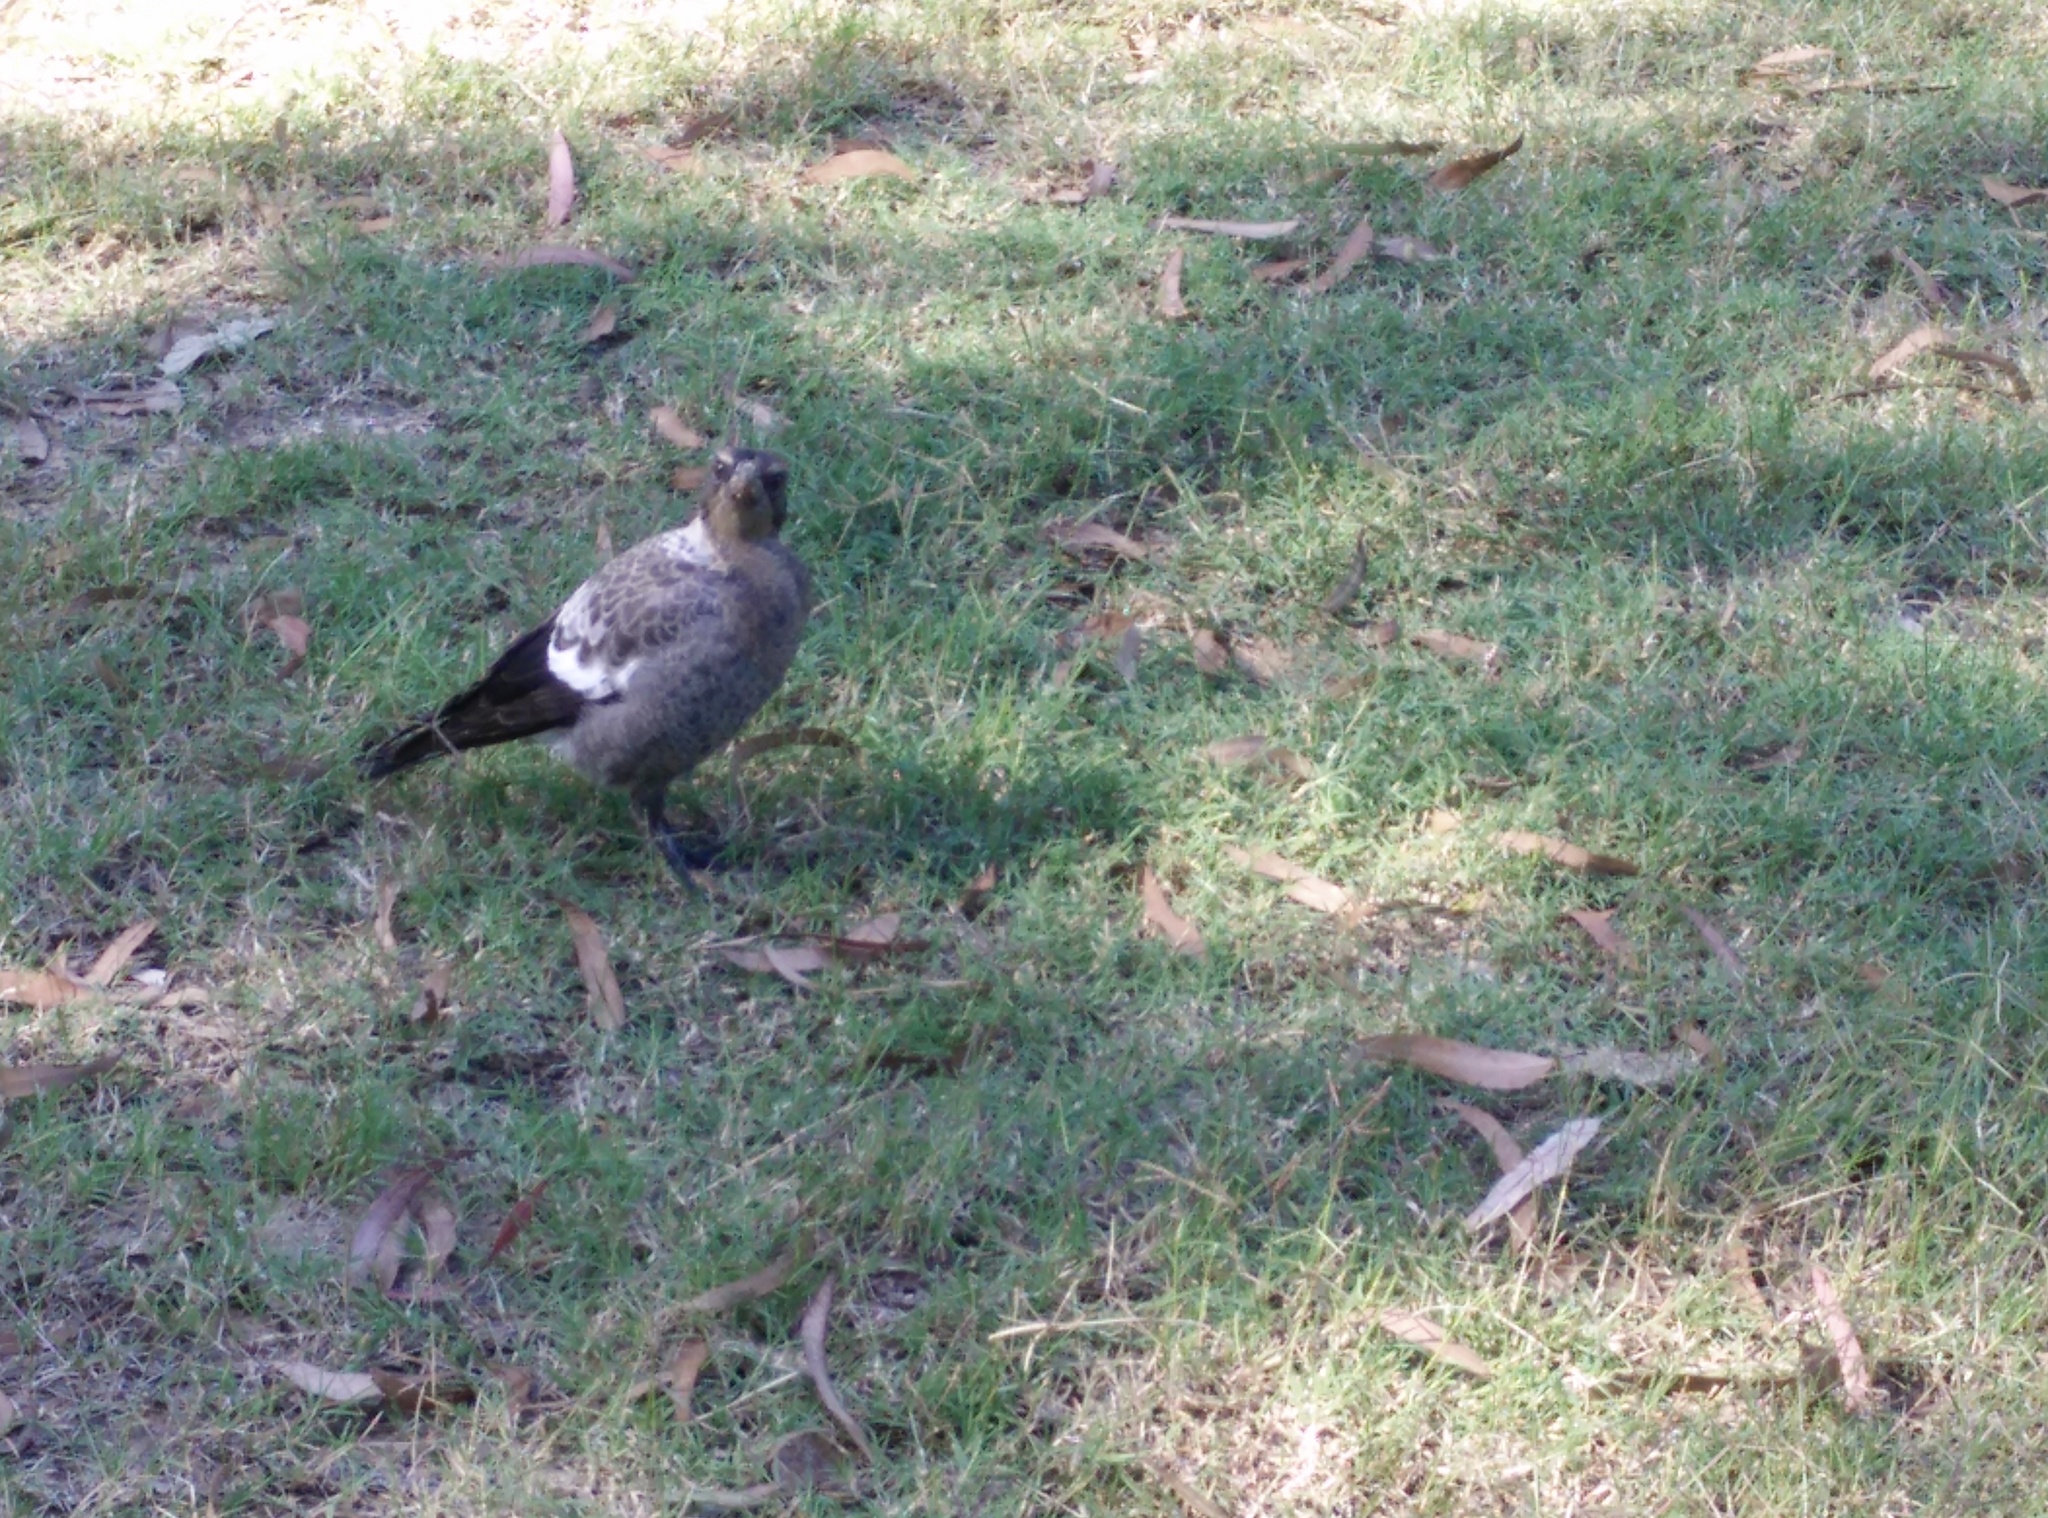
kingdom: Animalia
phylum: Chordata
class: Aves
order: Passeriformes
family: Cracticidae
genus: Gymnorhina
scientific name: Gymnorhina tibicen
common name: Australian magpie
